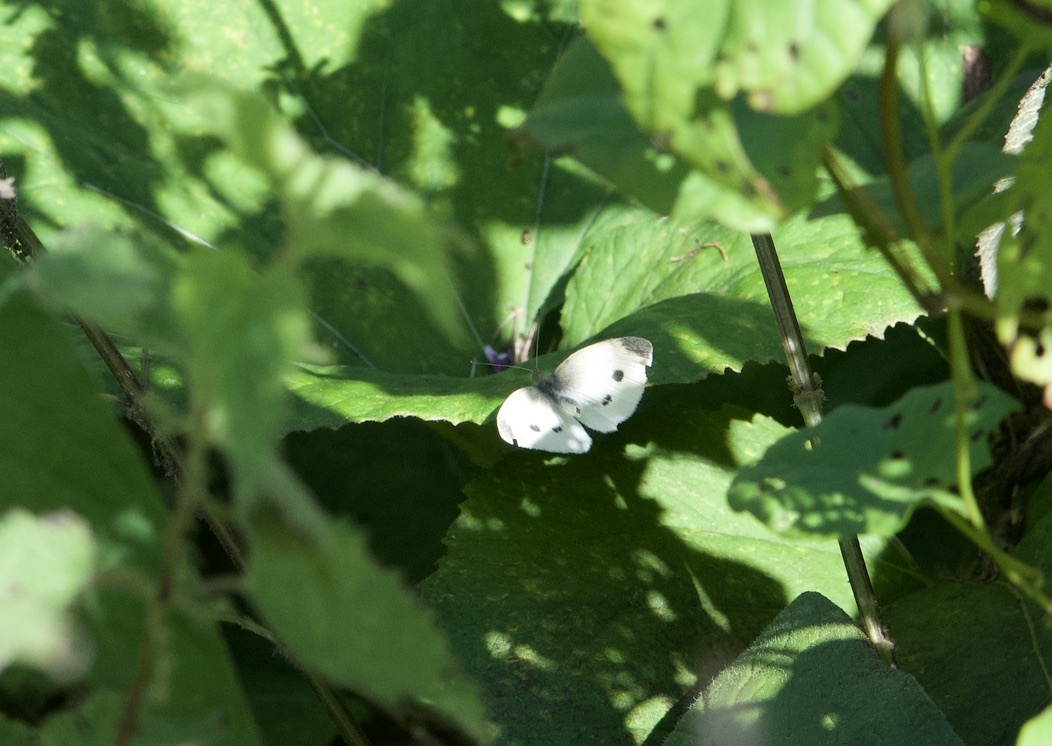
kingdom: Animalia
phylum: Arthropoda
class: Insecta
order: Lepidoptera
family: Pieridae
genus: Pieris
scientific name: Pieris rapae
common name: Small white
